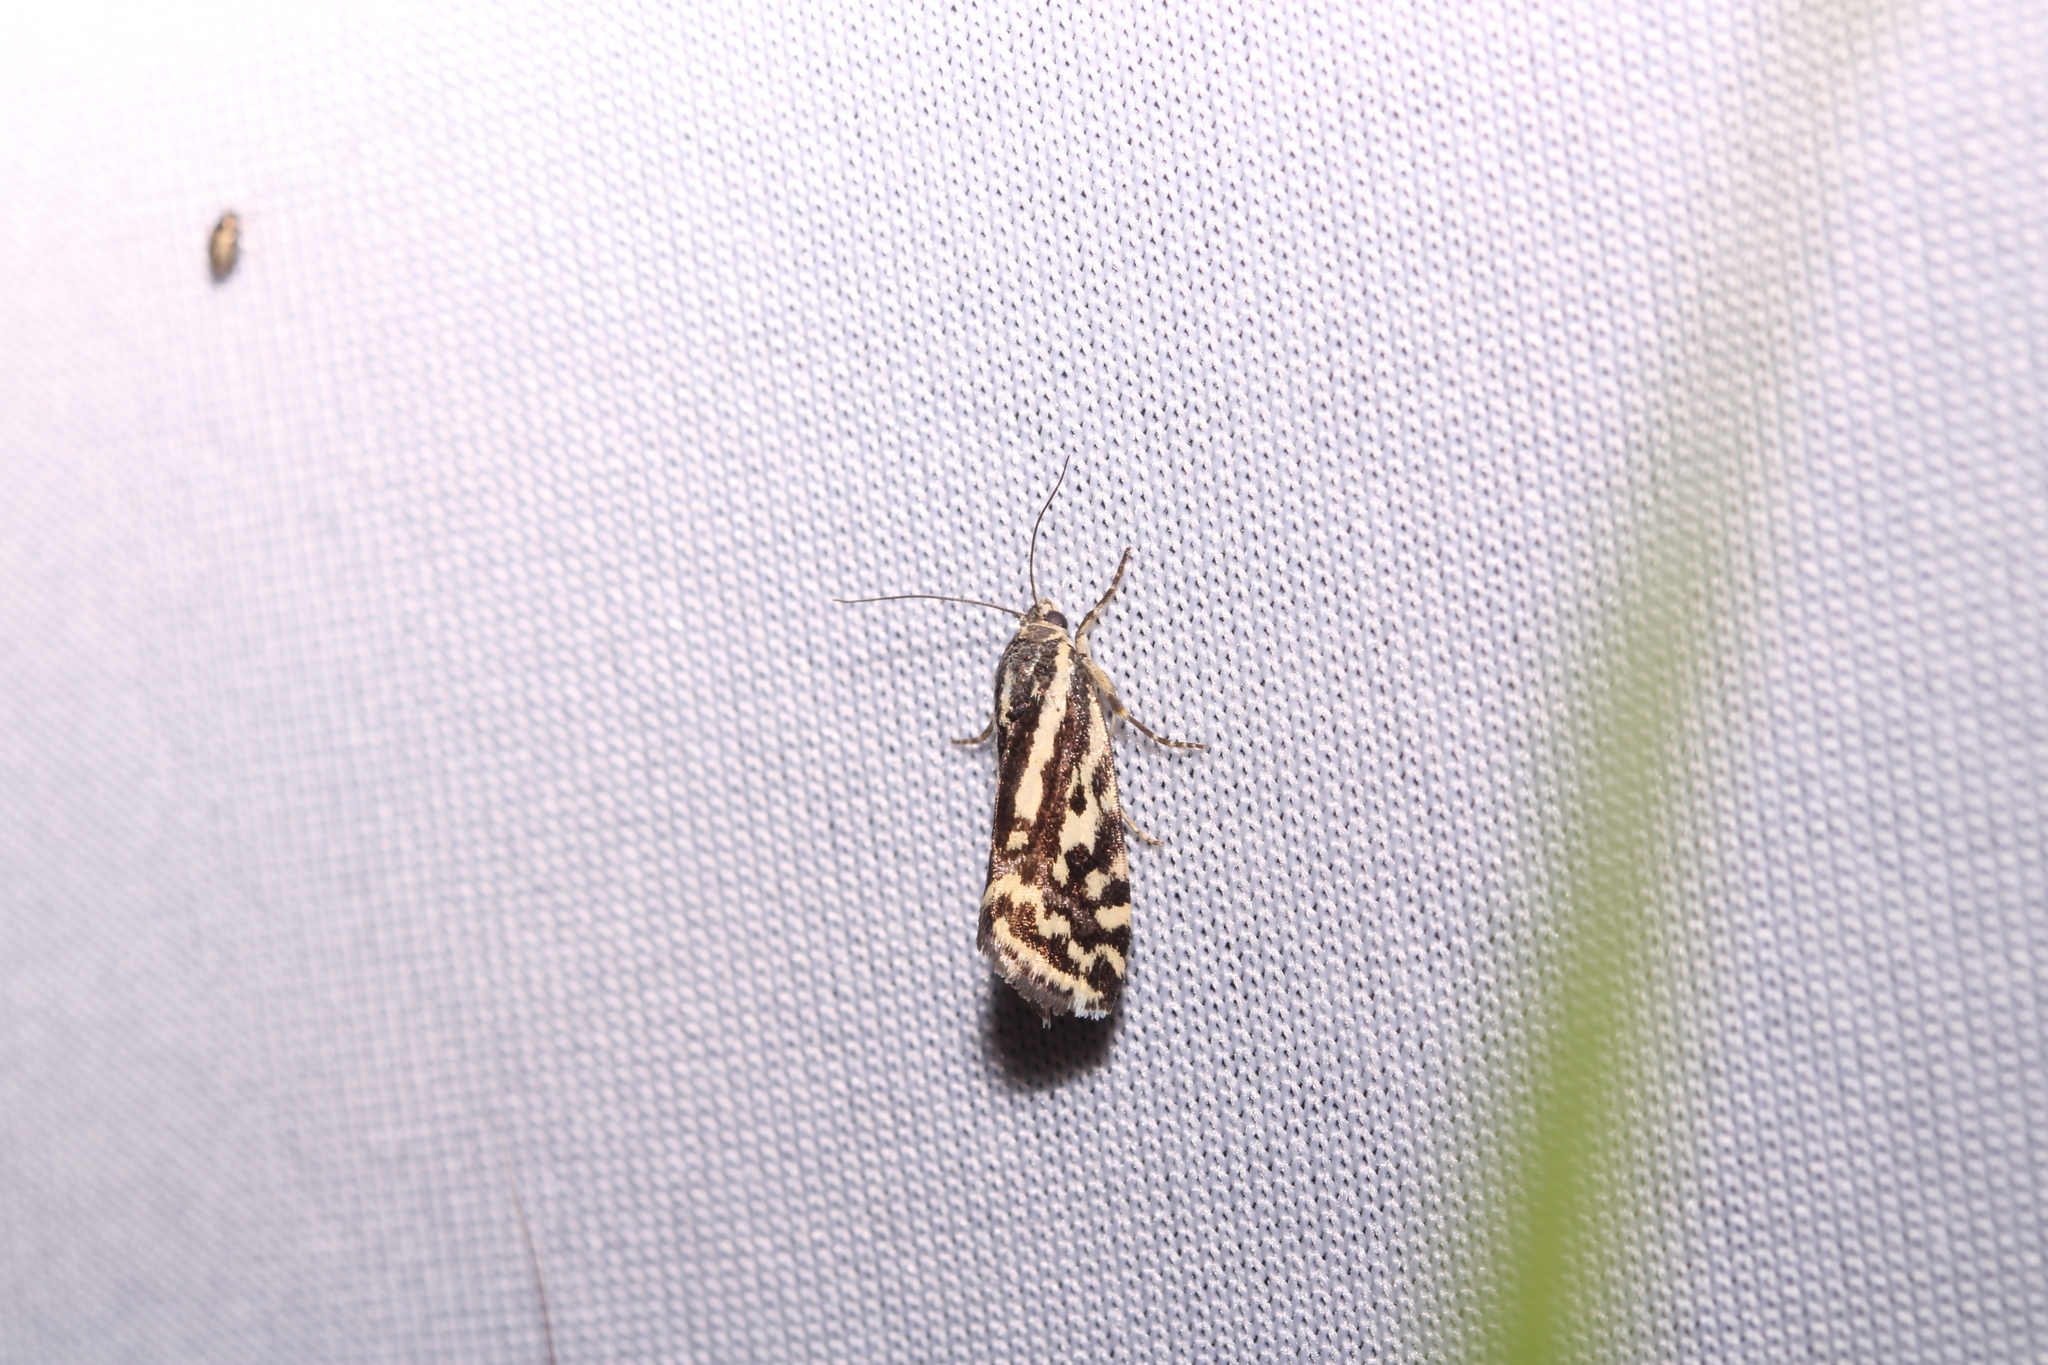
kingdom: Animalia
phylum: Arthropoda
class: Insecta
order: Lepidoptera
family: Noctuidae
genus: Acontia
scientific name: Acontia trabealis
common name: Spotted sulphur
